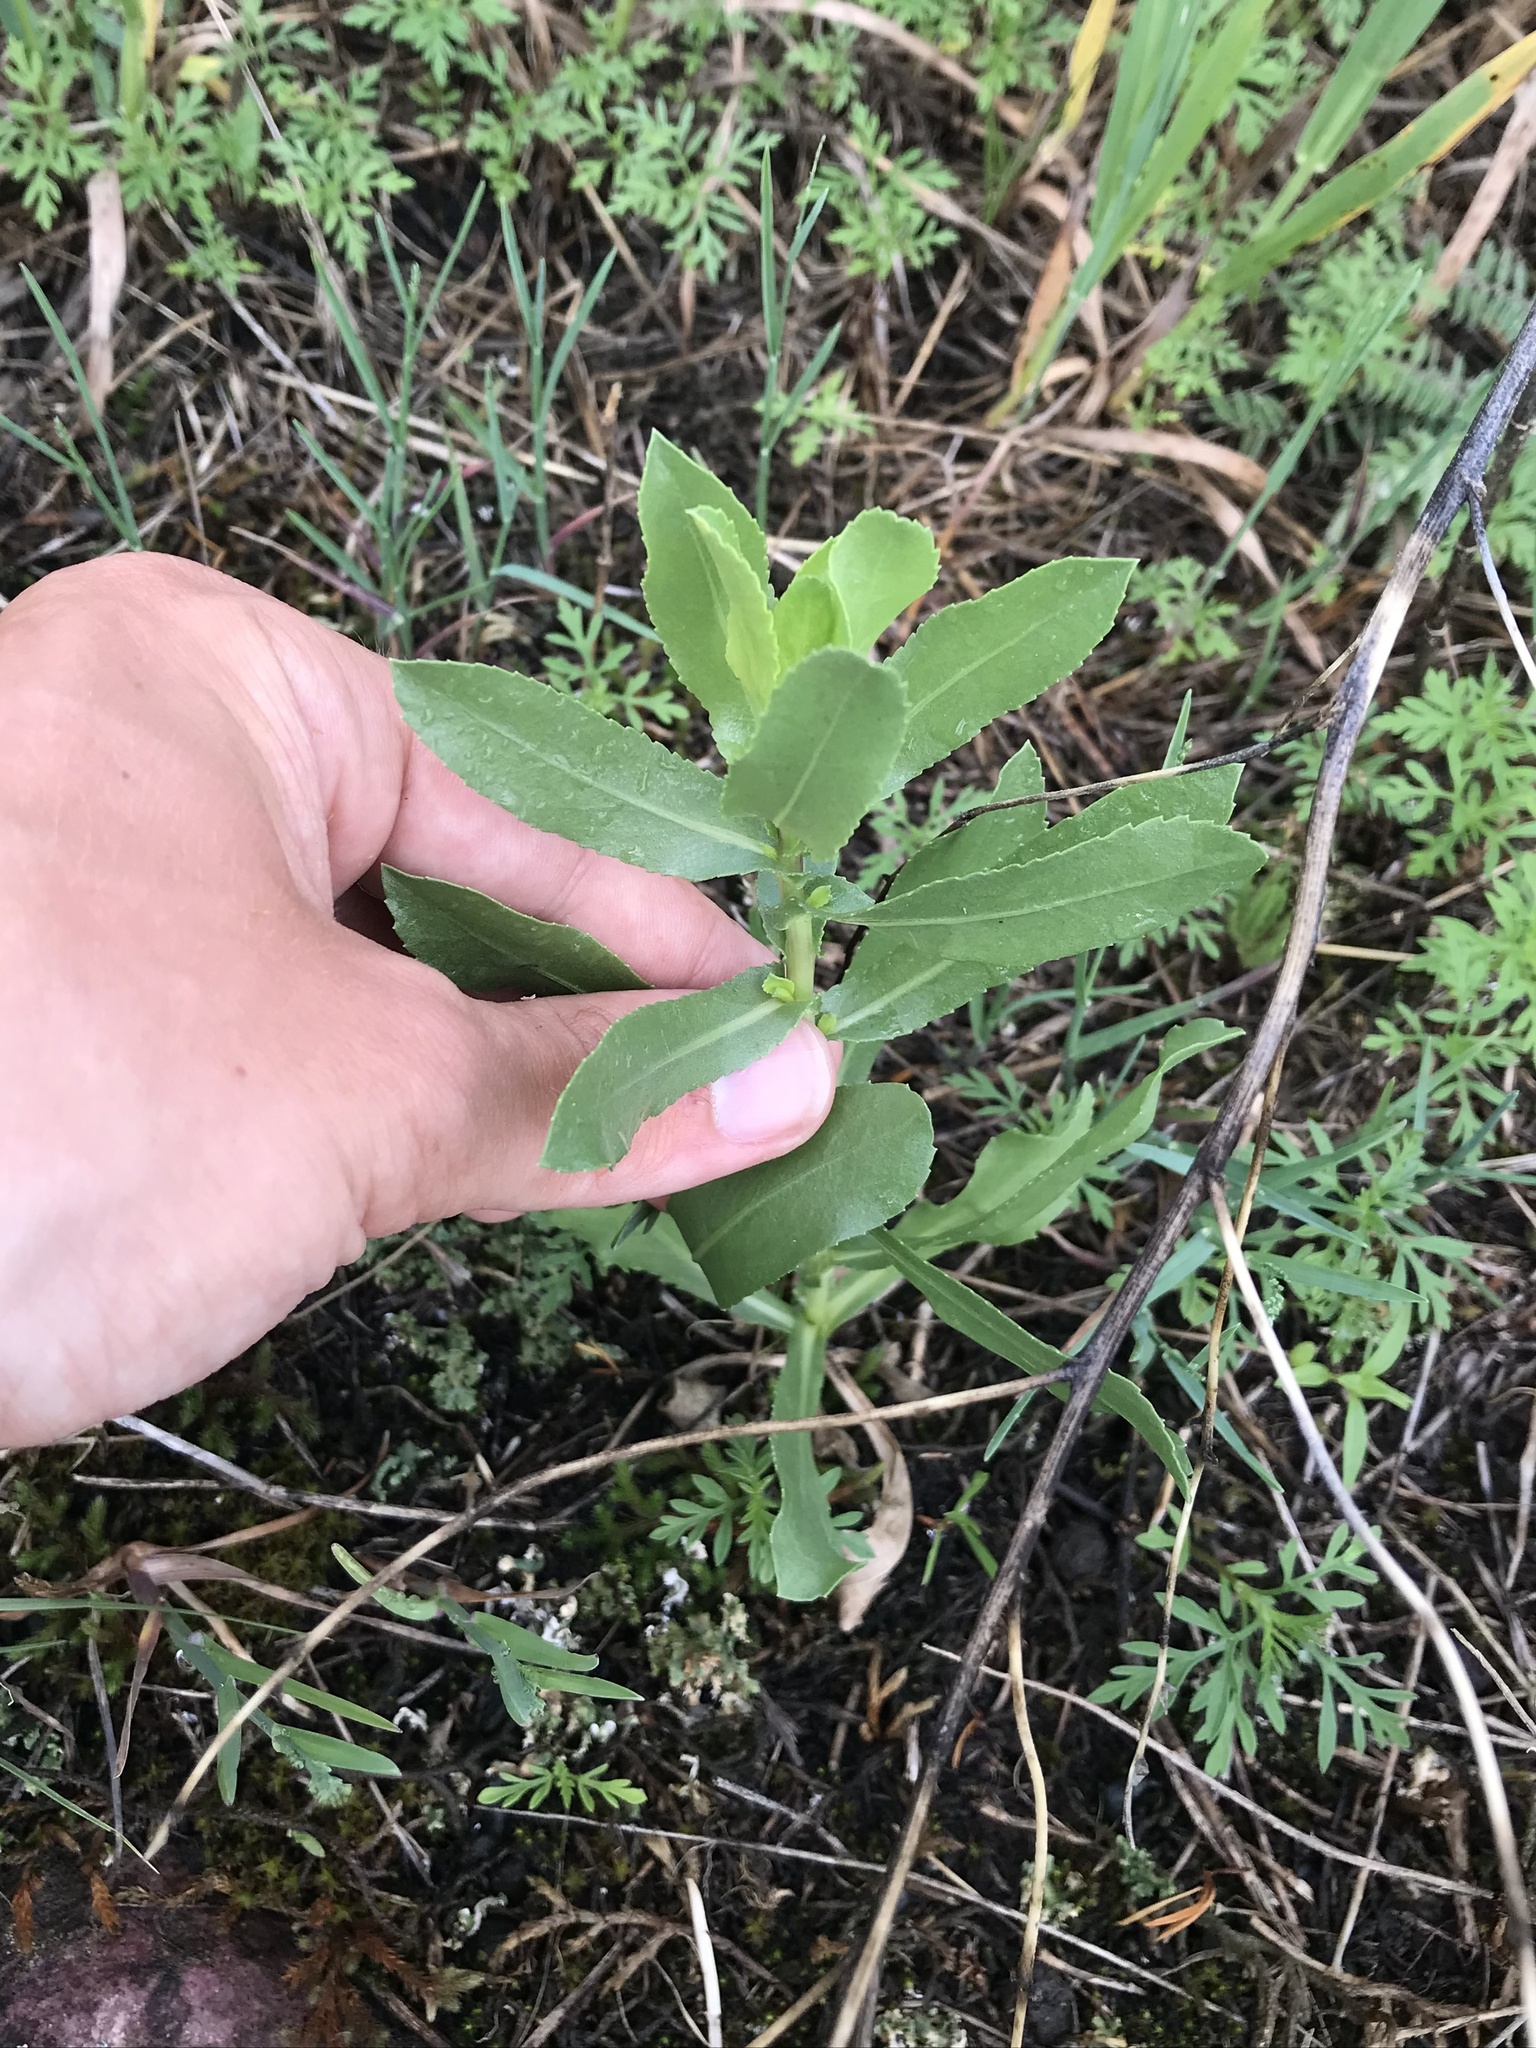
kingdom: Plantae
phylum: Tracheophyta
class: Magnoliopsida
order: Asterales
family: Asteraceae
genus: Grindelia
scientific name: Grindelia squarrosa
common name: Curly-cup gumweed
